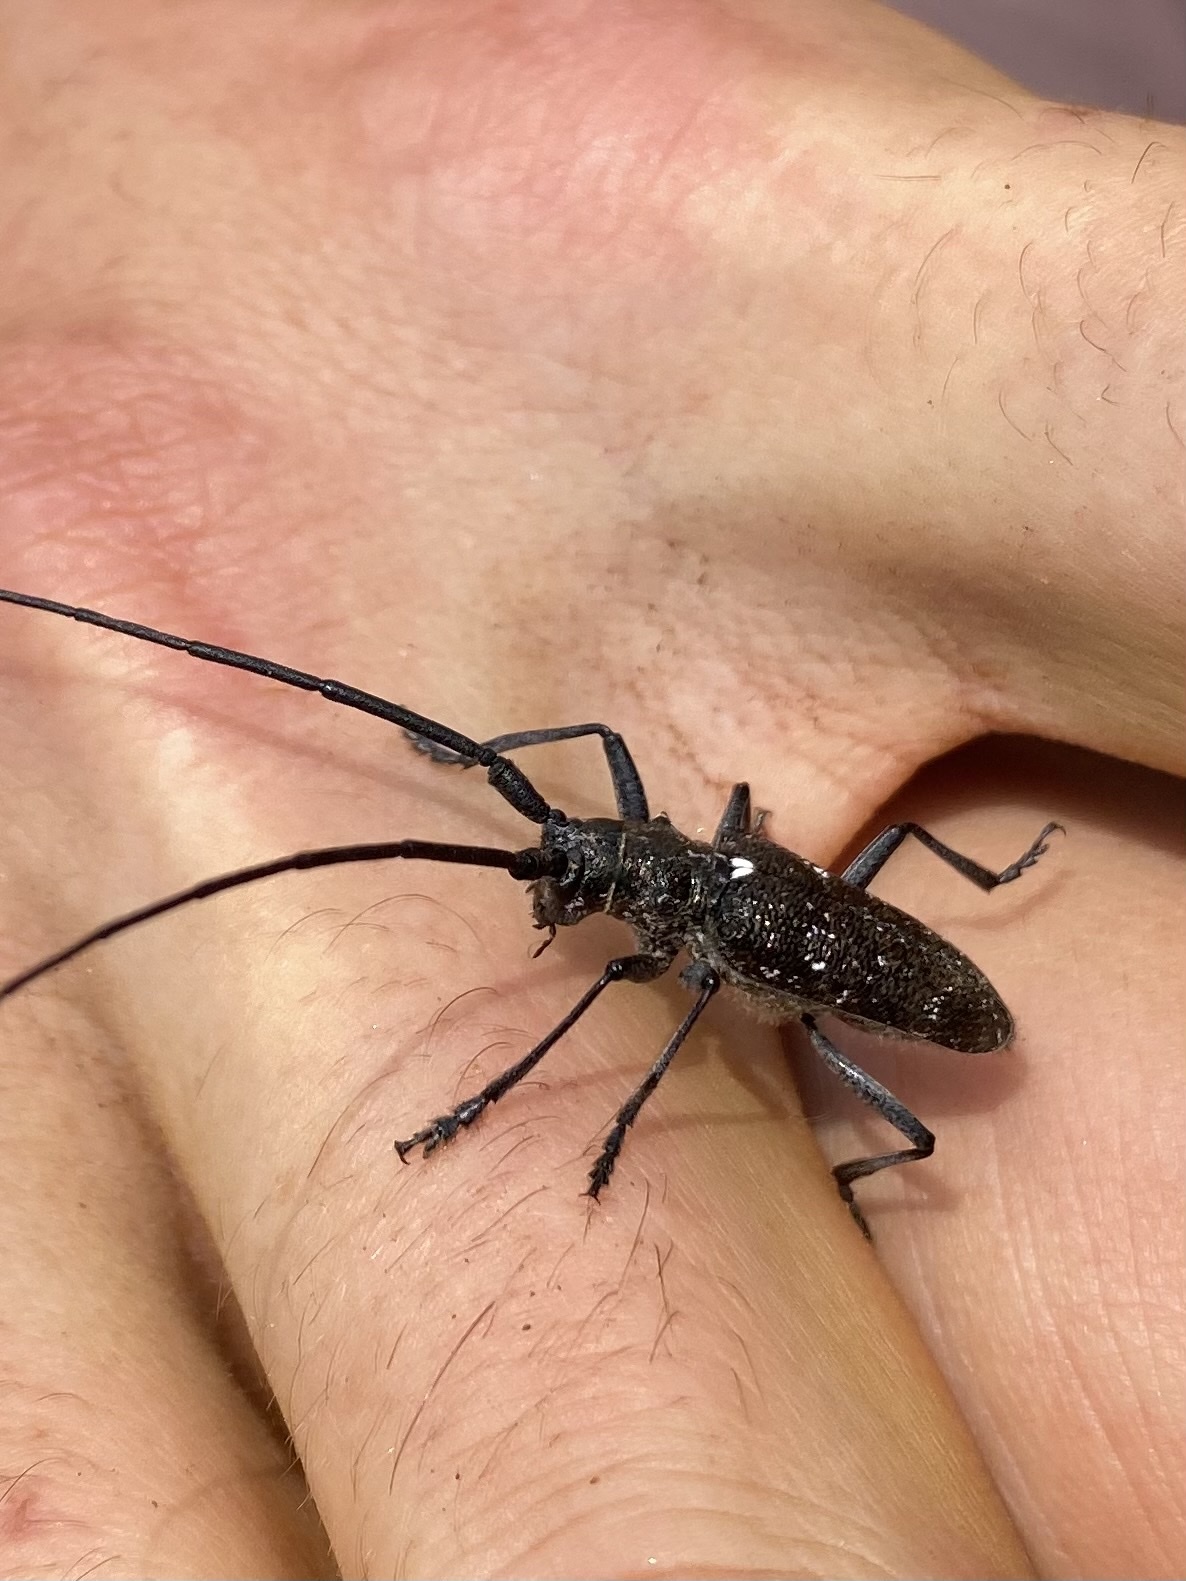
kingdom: Animalia
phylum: Arthropoda
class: Insecta
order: Coleoptera
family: Cerambycidae
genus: Monochamus
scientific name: Monochamus scutellatus
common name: White-spotted sawyer beetle
